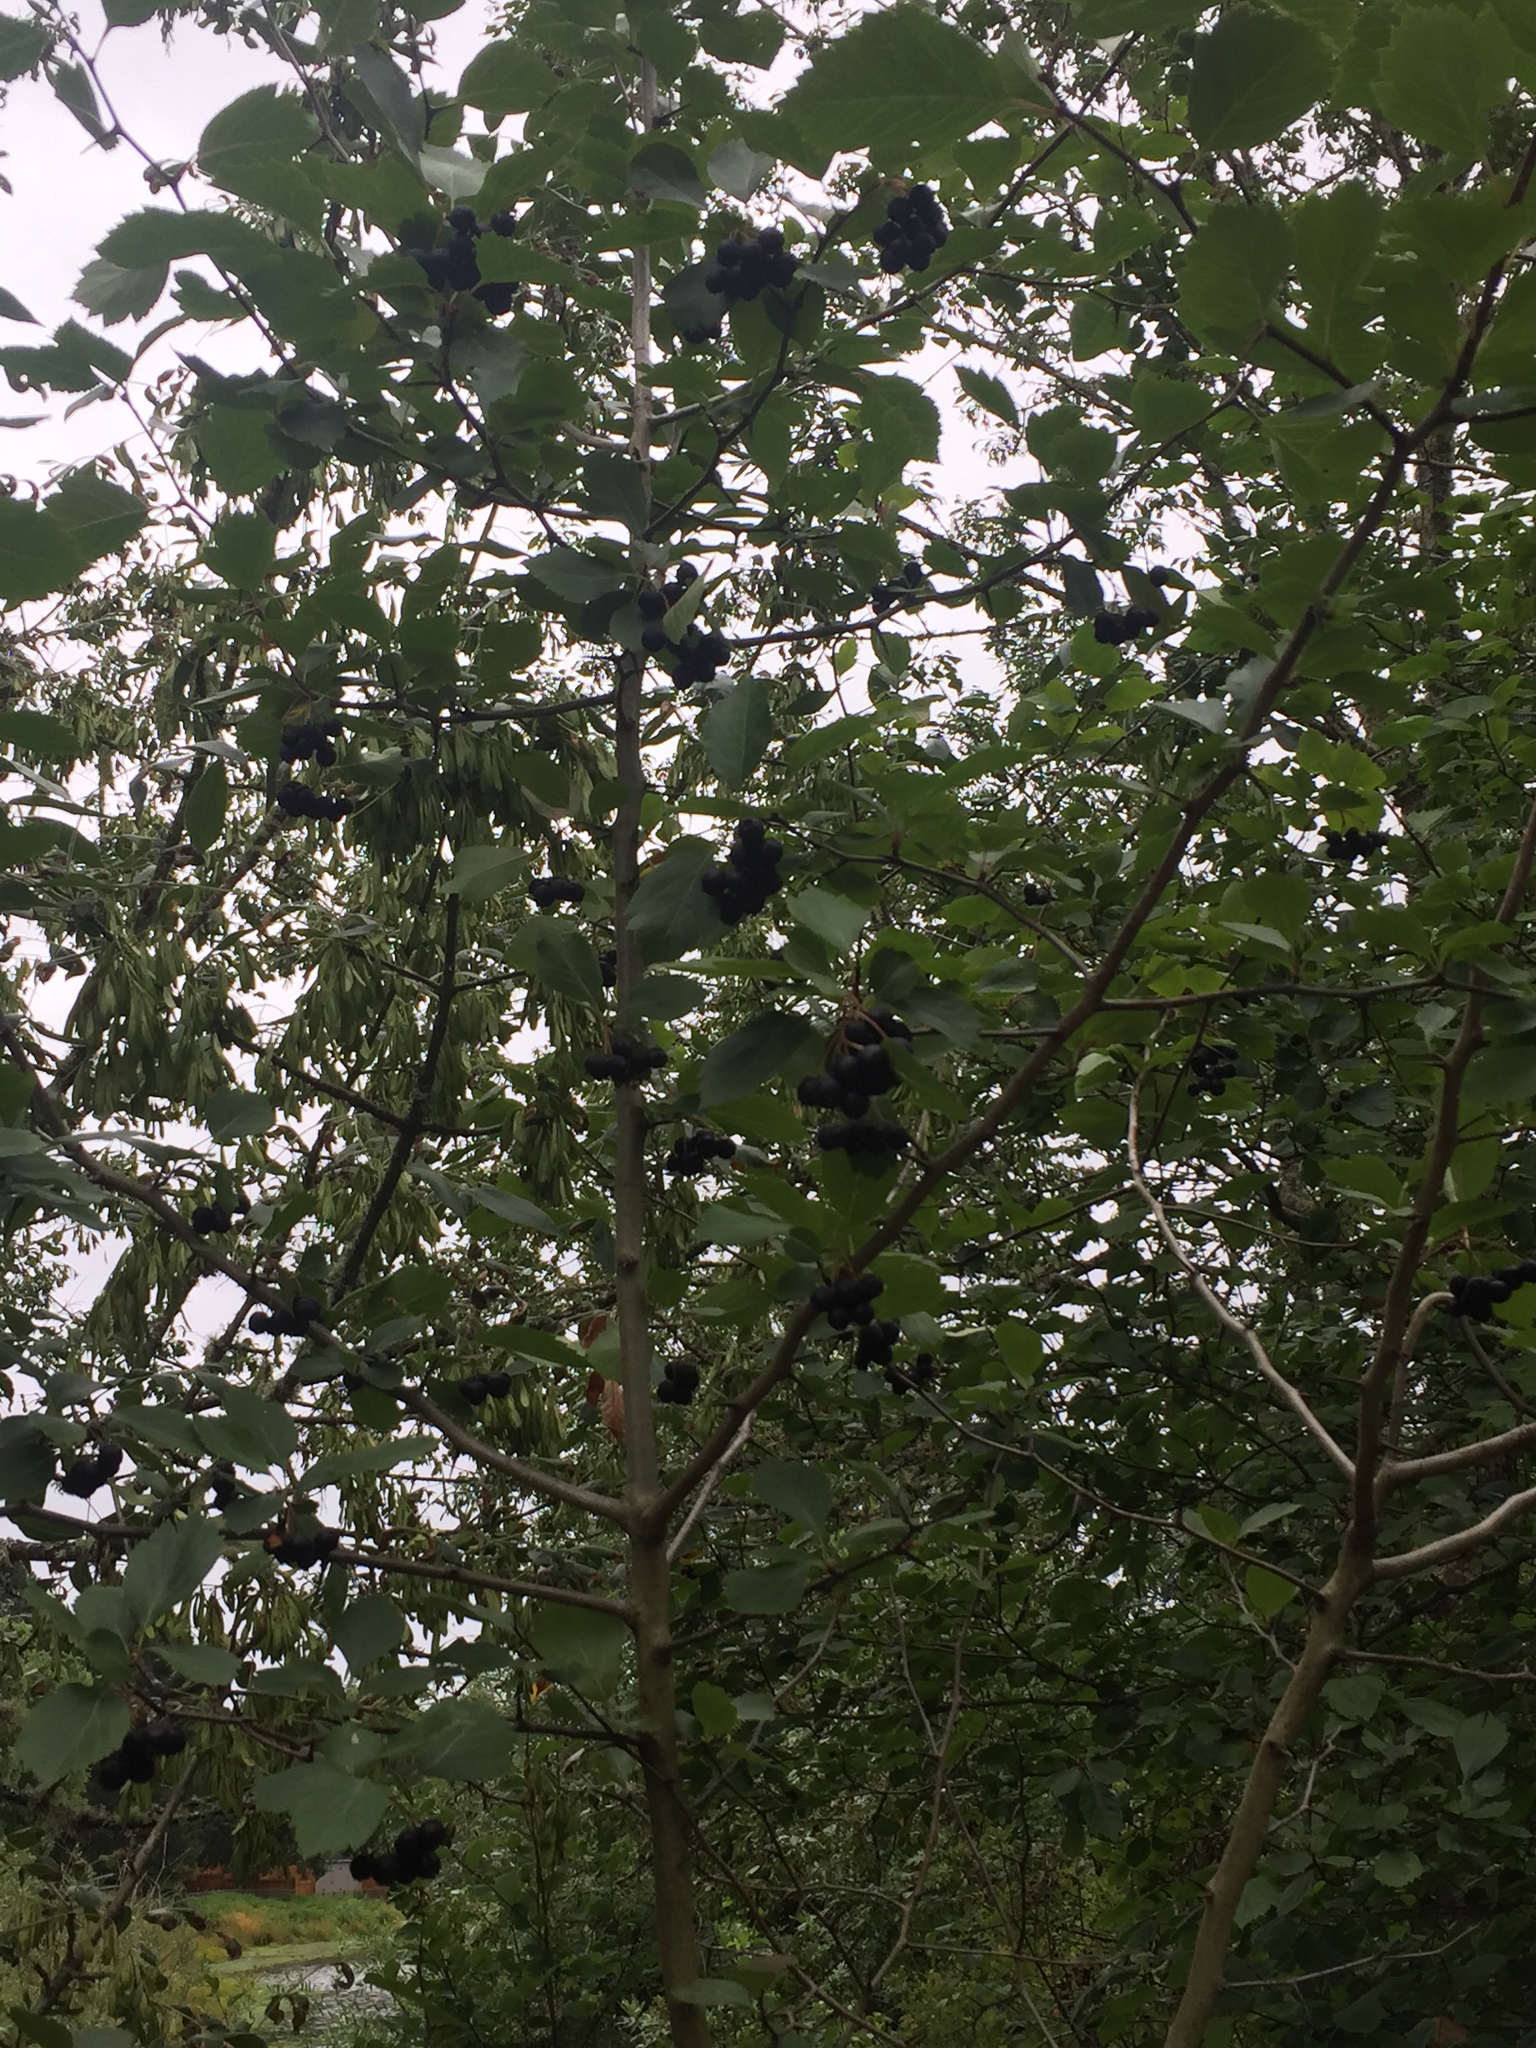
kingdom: Plantae
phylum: Tracheophyta
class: Magnoliopsida
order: Rosales
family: Rosaceae
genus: Crataegus
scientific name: Crataegus douglasii
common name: Black hawthorn
